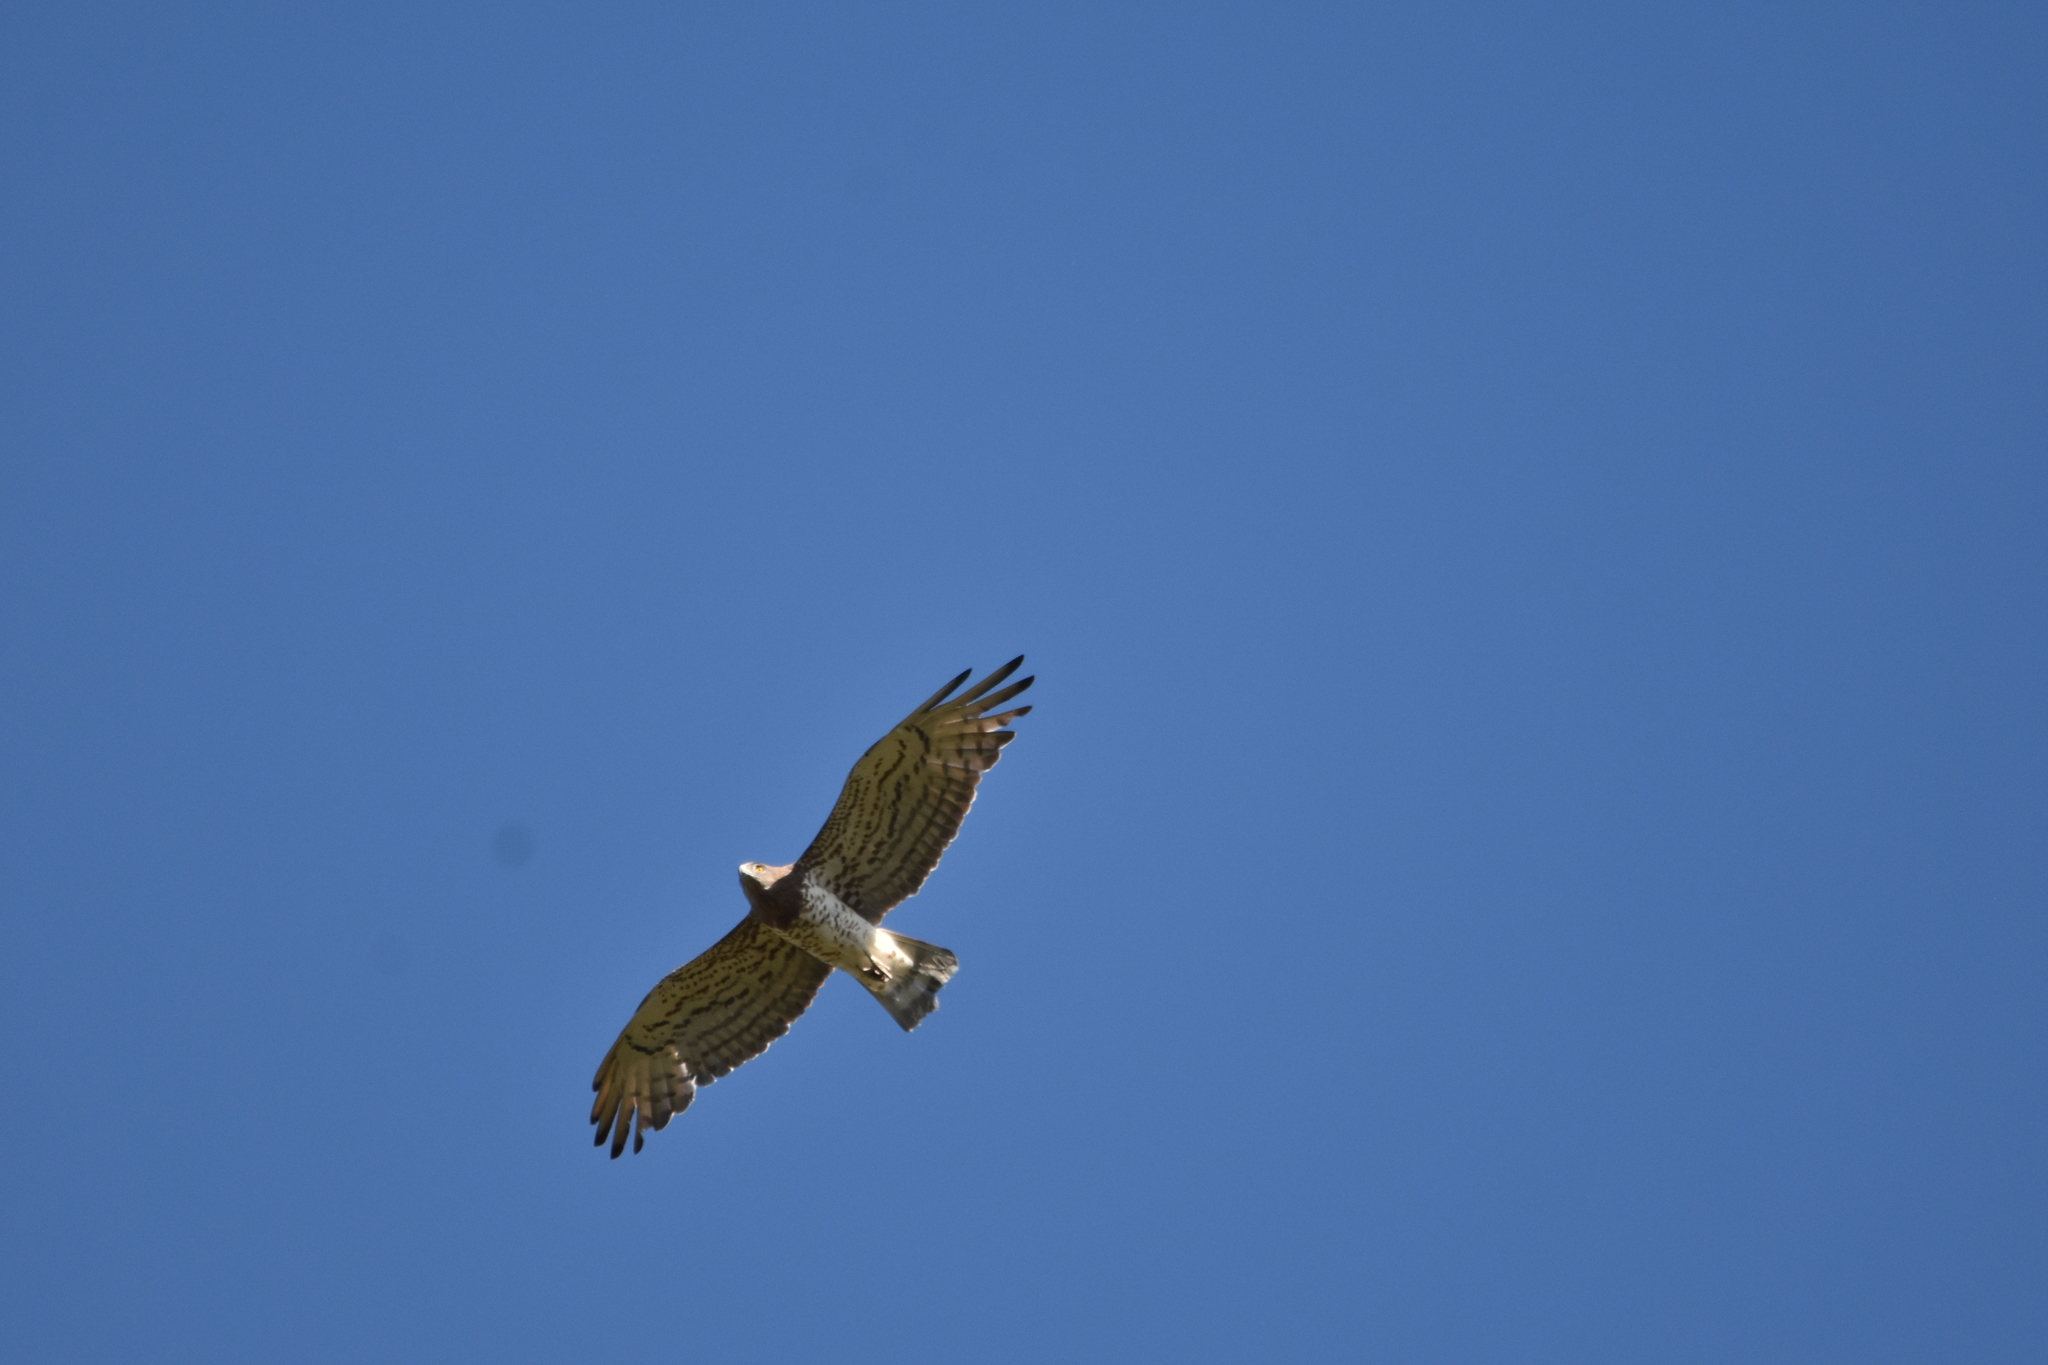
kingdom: Animalia
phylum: Chordata
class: Aves
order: Accipitriformes
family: Accipitridae
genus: Circaetus
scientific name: Circaetus gallicus
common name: Short-toed snake eagle
